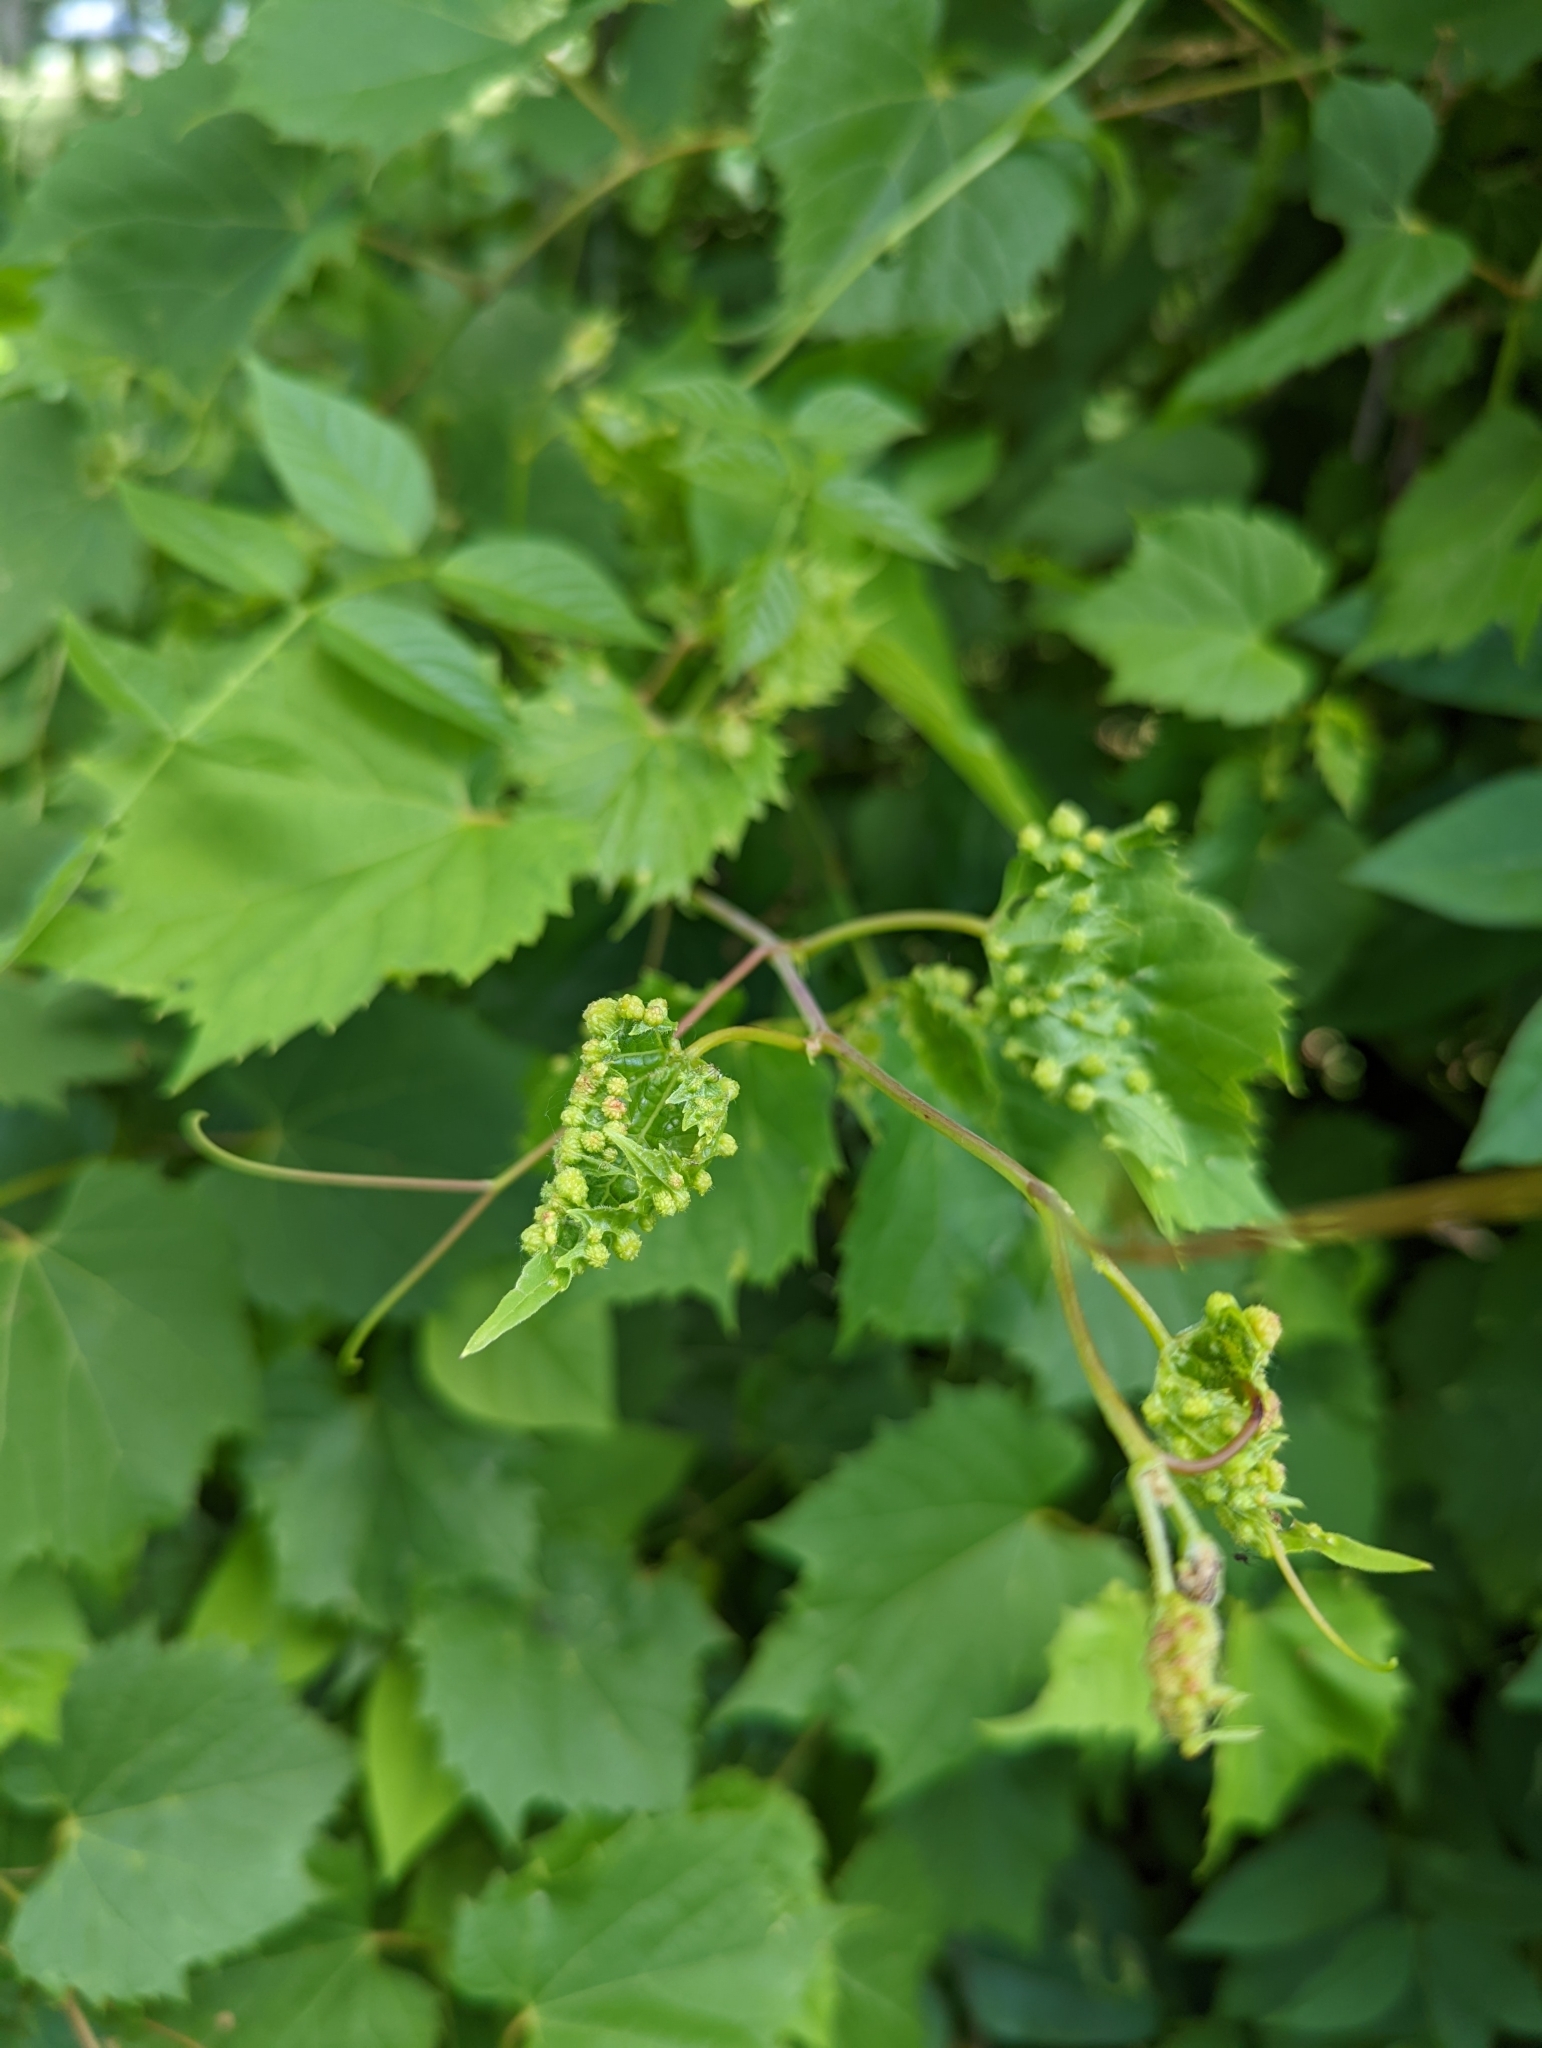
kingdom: Animalia
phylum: Arthropoda
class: Insecta
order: Hemiptera
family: Phylloxeridae
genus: Daktulosphaira
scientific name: Daktulosphaira vitifoliae
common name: Grape phylloxera
